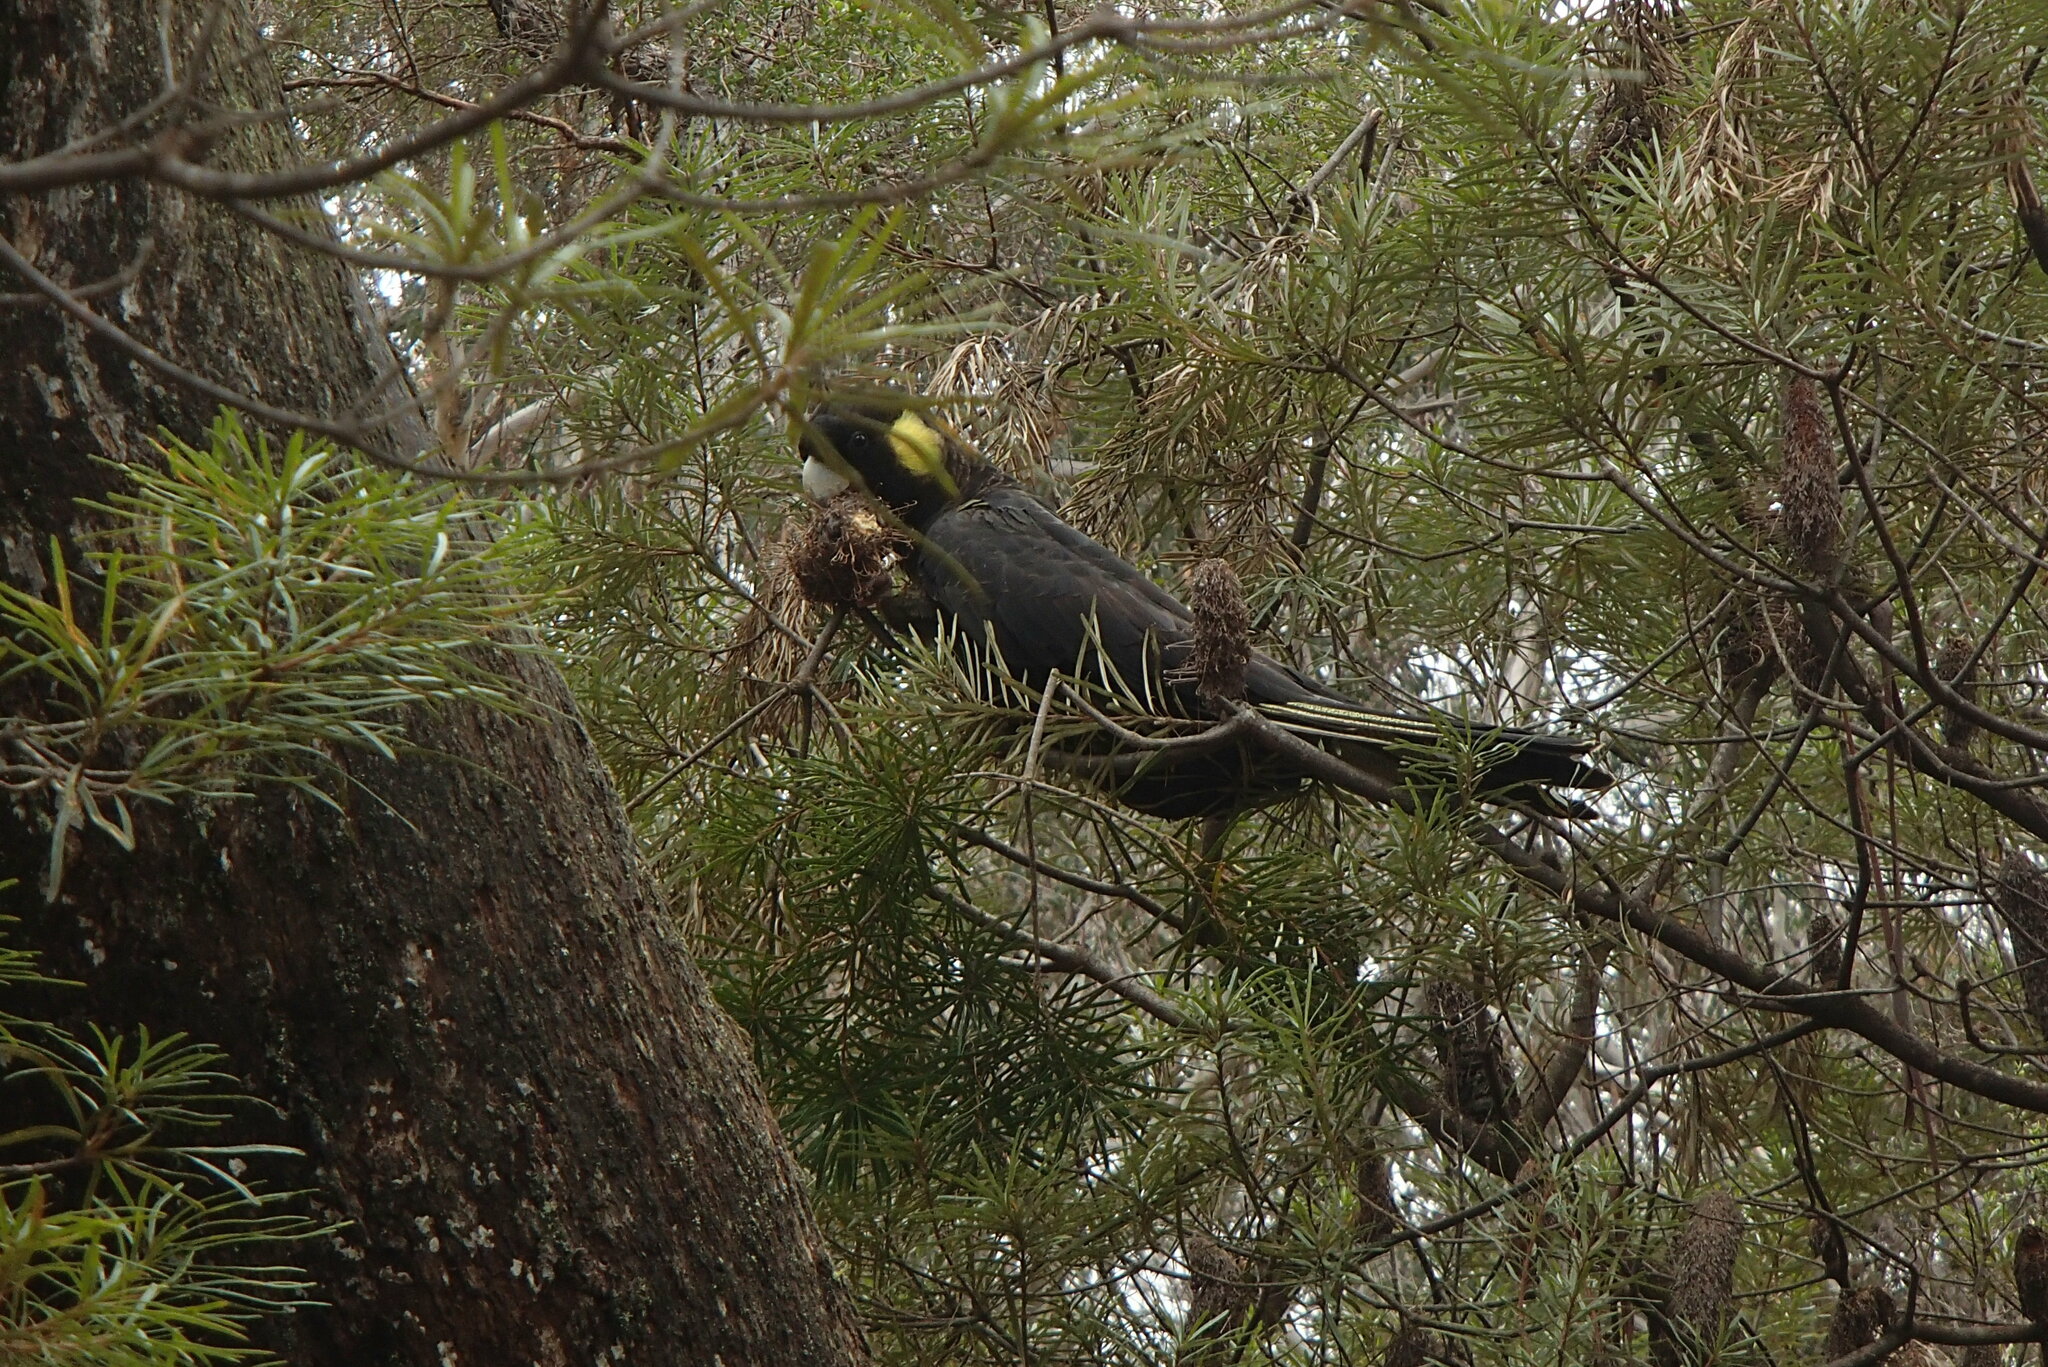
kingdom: Animalia
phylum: Chordata
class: Aves
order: Psittaciformes
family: Cacatuidae
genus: Zanda
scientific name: Zanda funerea
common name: Yellow-tailed black-cockatoo
